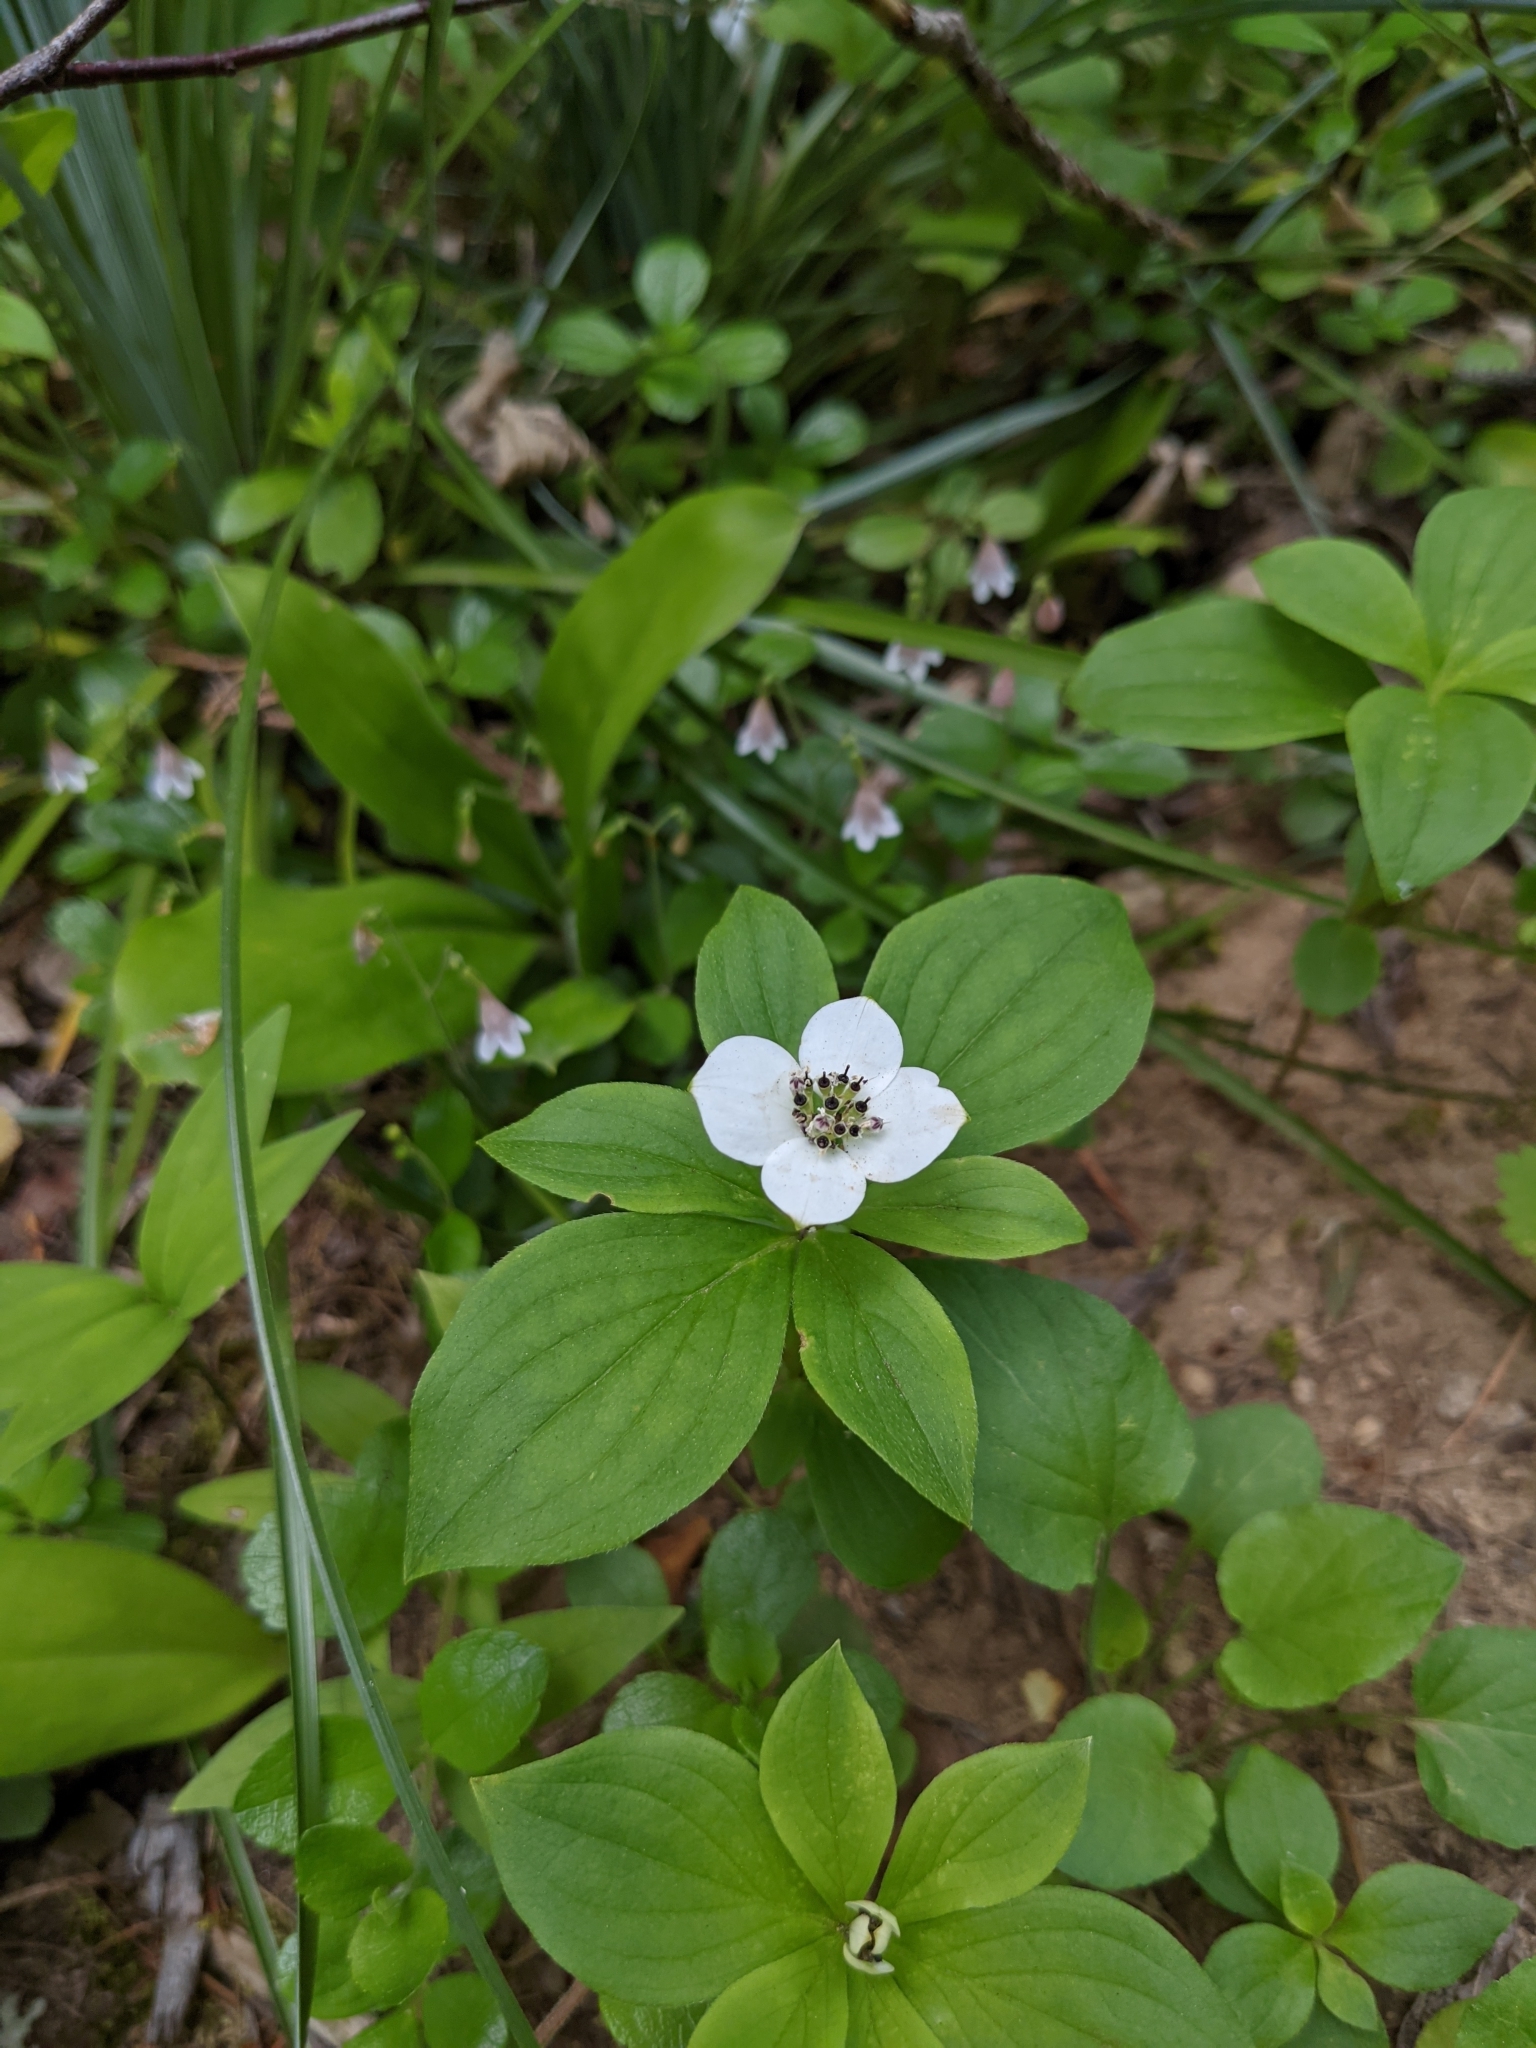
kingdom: Plantae
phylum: Tracheophyta
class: Magnoliopsida
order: Cornales
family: Cornaceae
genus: Cornus
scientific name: Cornus unalaschkensis
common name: Alaska bunchberry
